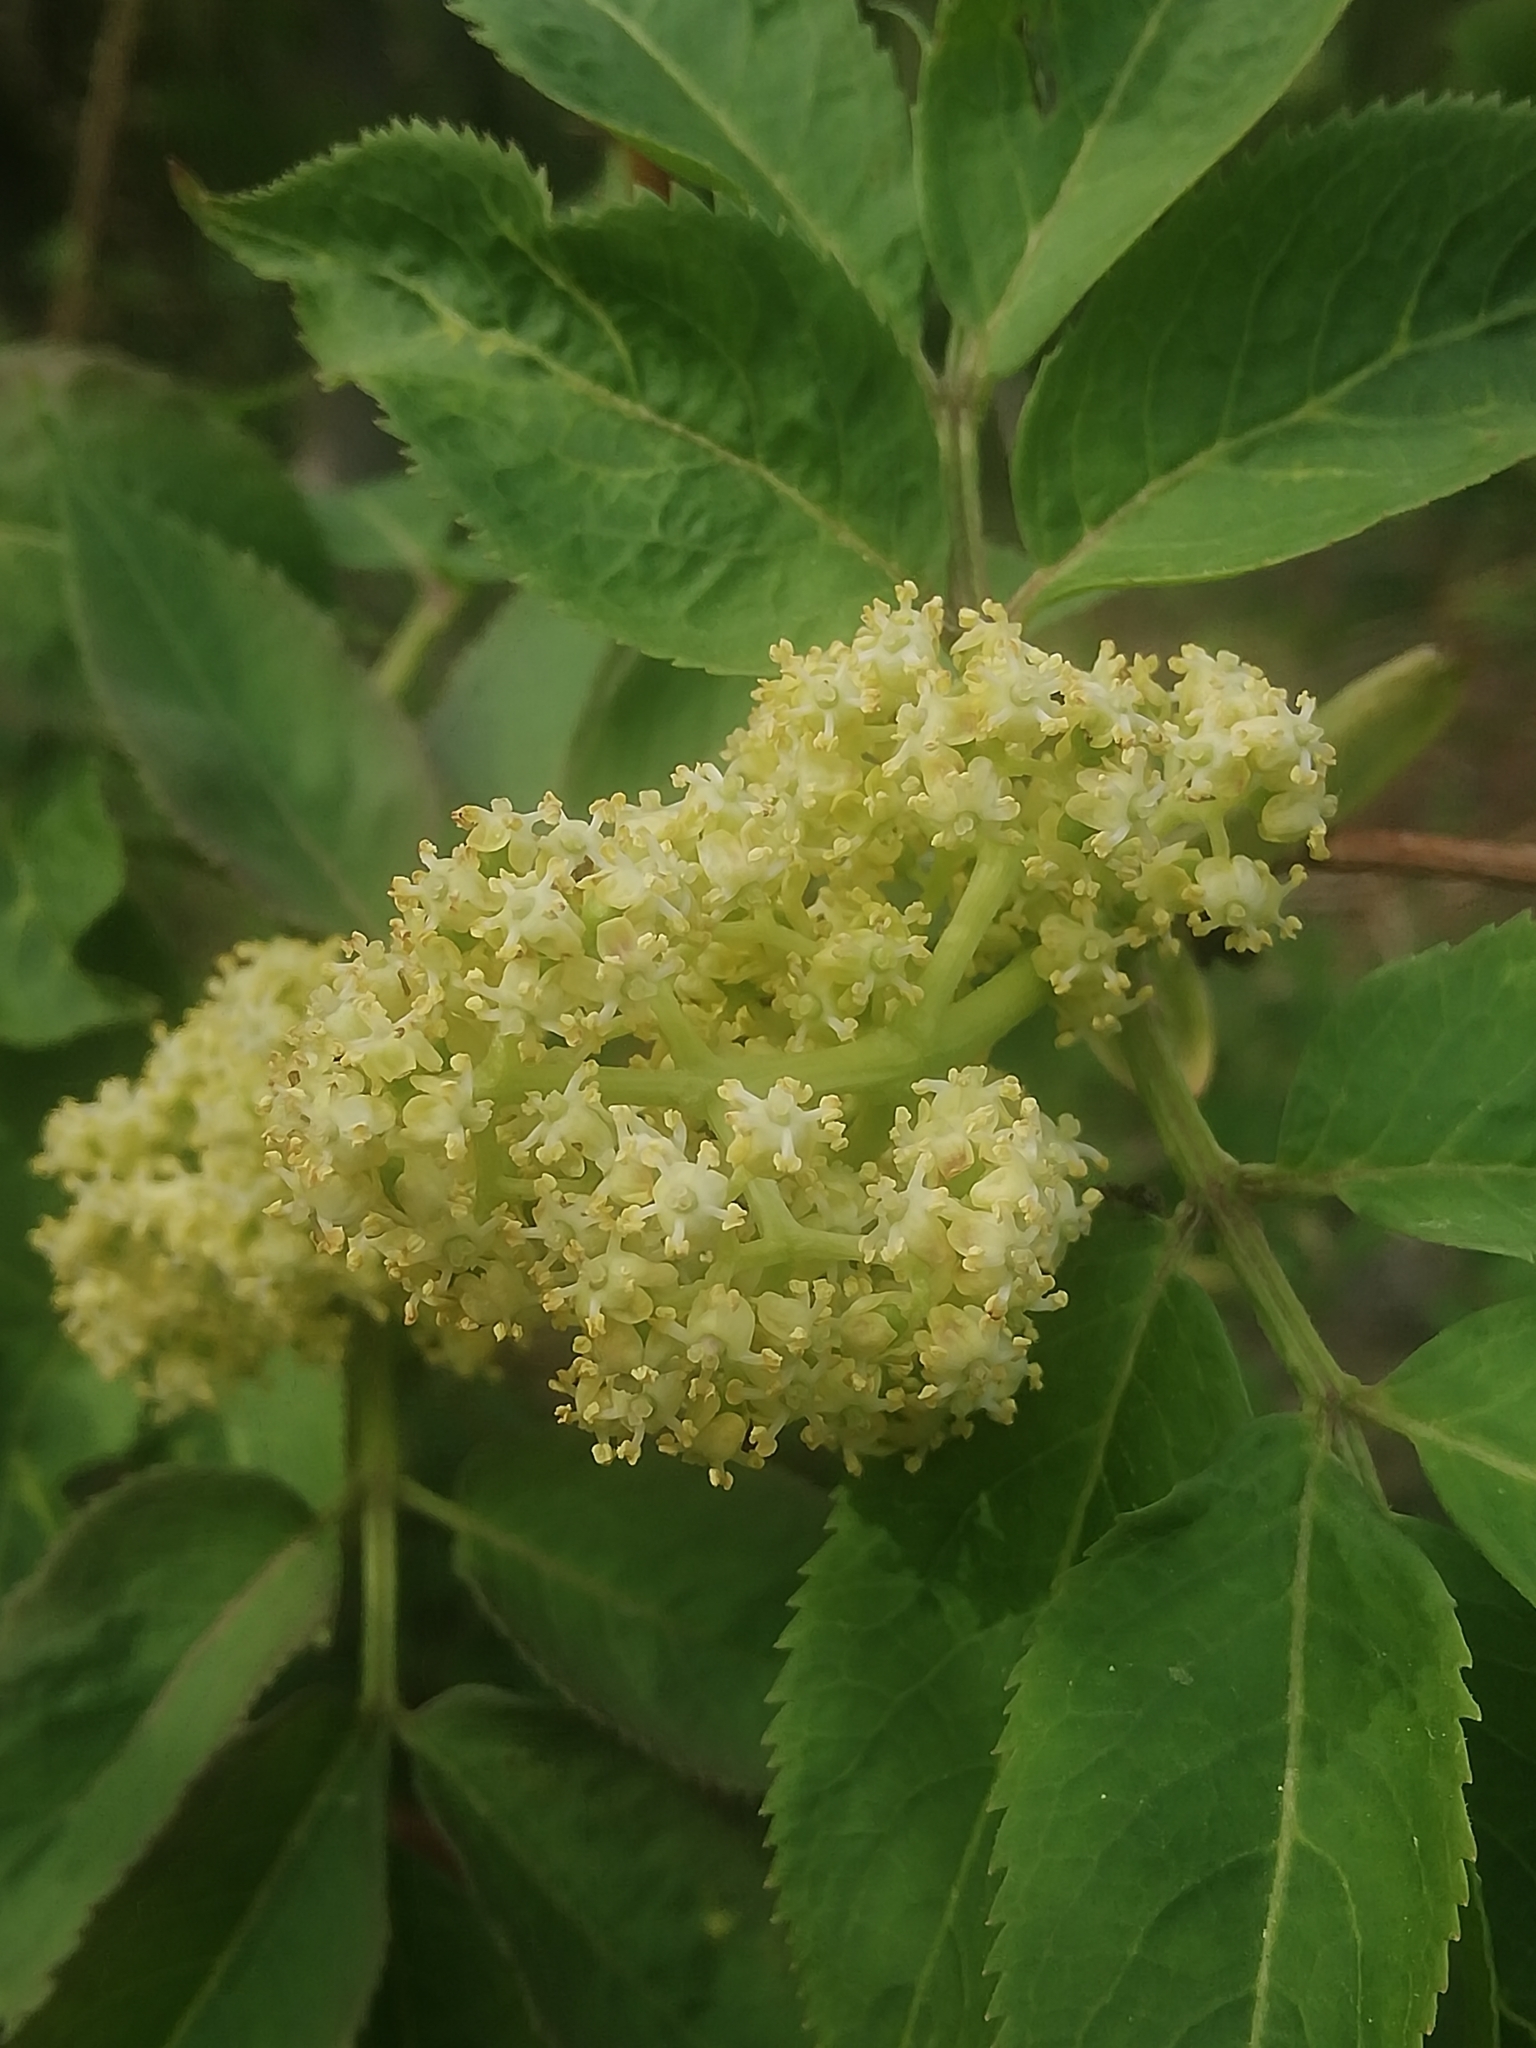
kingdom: Plantae
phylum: Tracheophyta
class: Magnoliopsida
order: Dipsacales
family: Viburnaceae
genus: Sambucus
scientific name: Sambucus racemosa
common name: Red-berried elder
